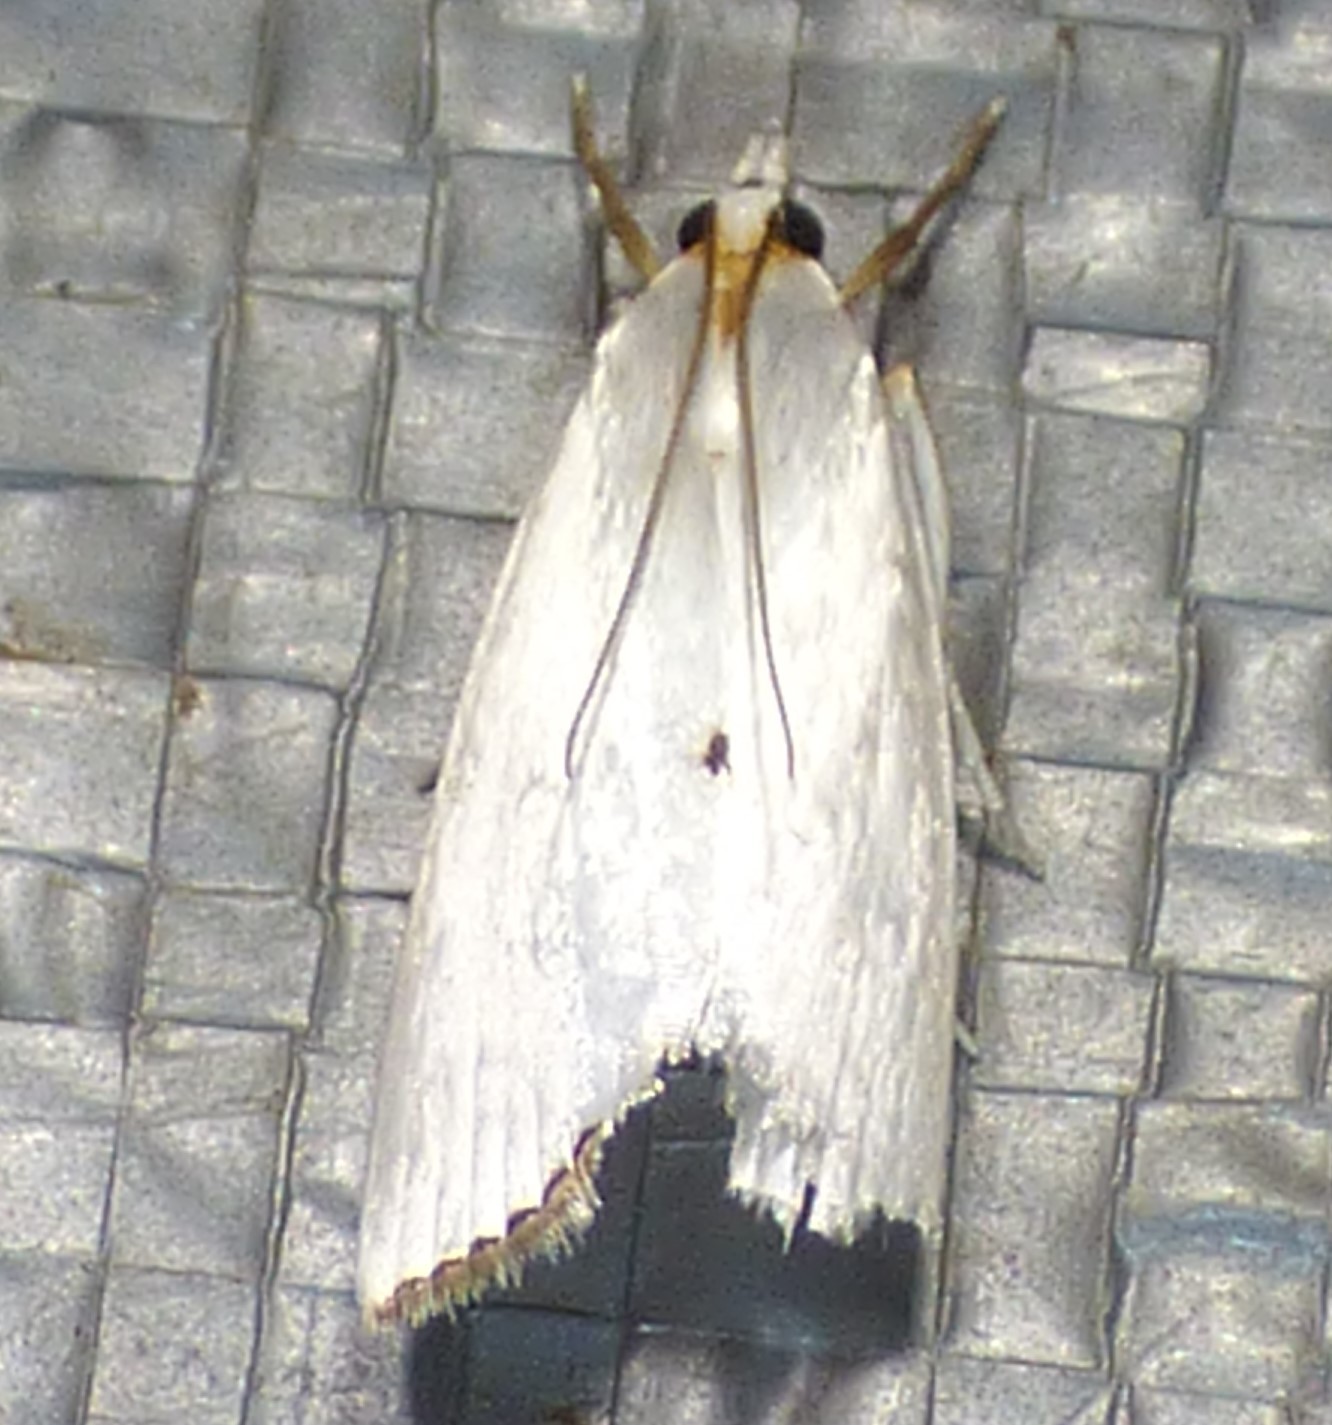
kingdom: Animalia
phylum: Arthropoda
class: Insecta
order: Lepidoptera
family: Crambidae
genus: Argyria
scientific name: Argyria nivalis
